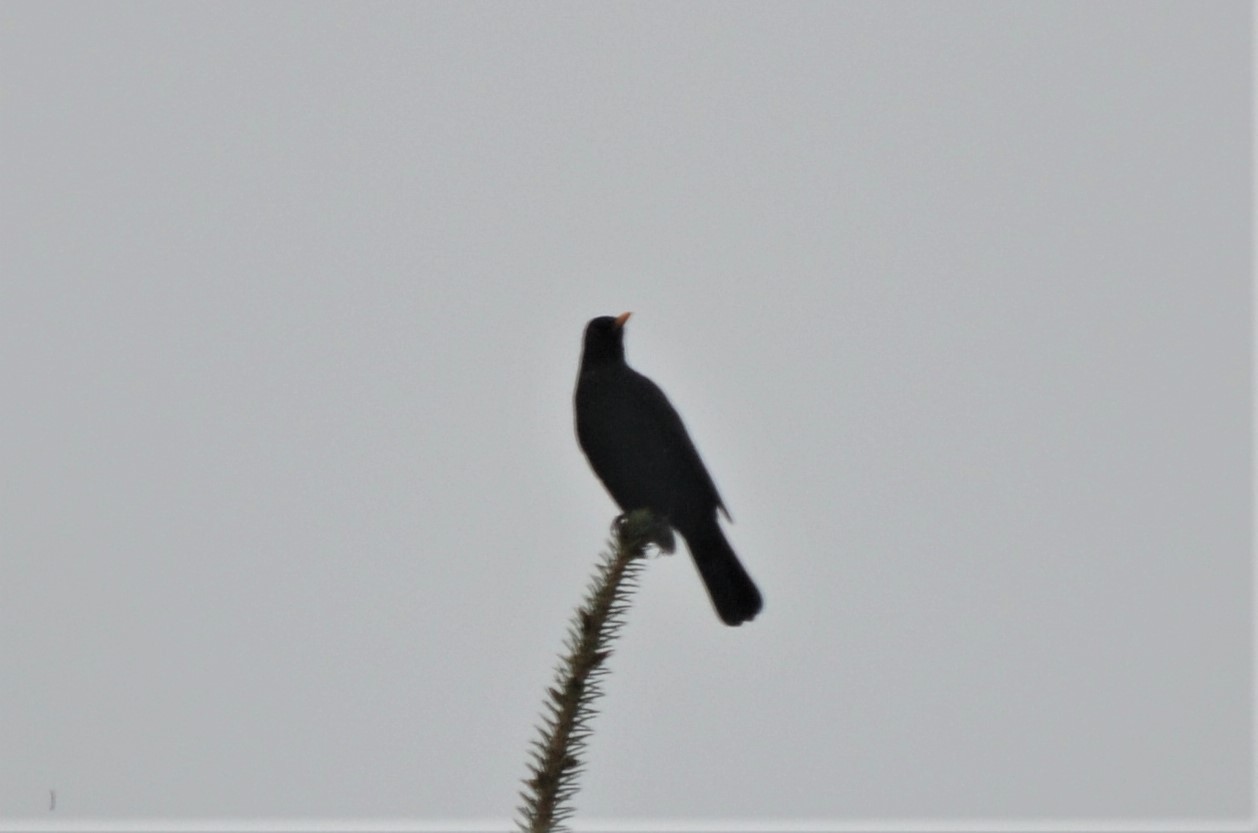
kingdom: Animalia
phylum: Chordata
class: Aves
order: Passeriformes
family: Turdidae
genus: Turdus
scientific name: Turdus merula
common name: Common blackbird
